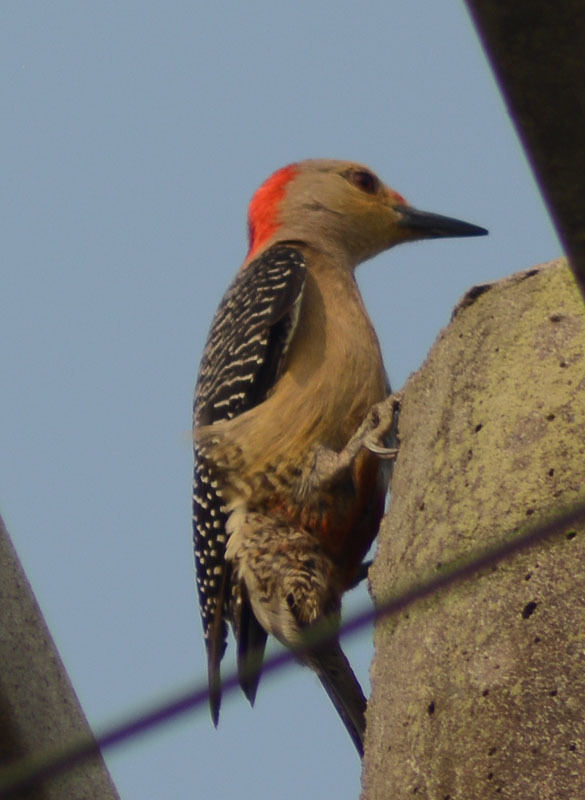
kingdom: Animalia
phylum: Chordata
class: Aves
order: Piciformes
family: Picidae
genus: Melanerpes
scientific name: Melanerpes aurifrons
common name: Golden-fronted woodpecker
